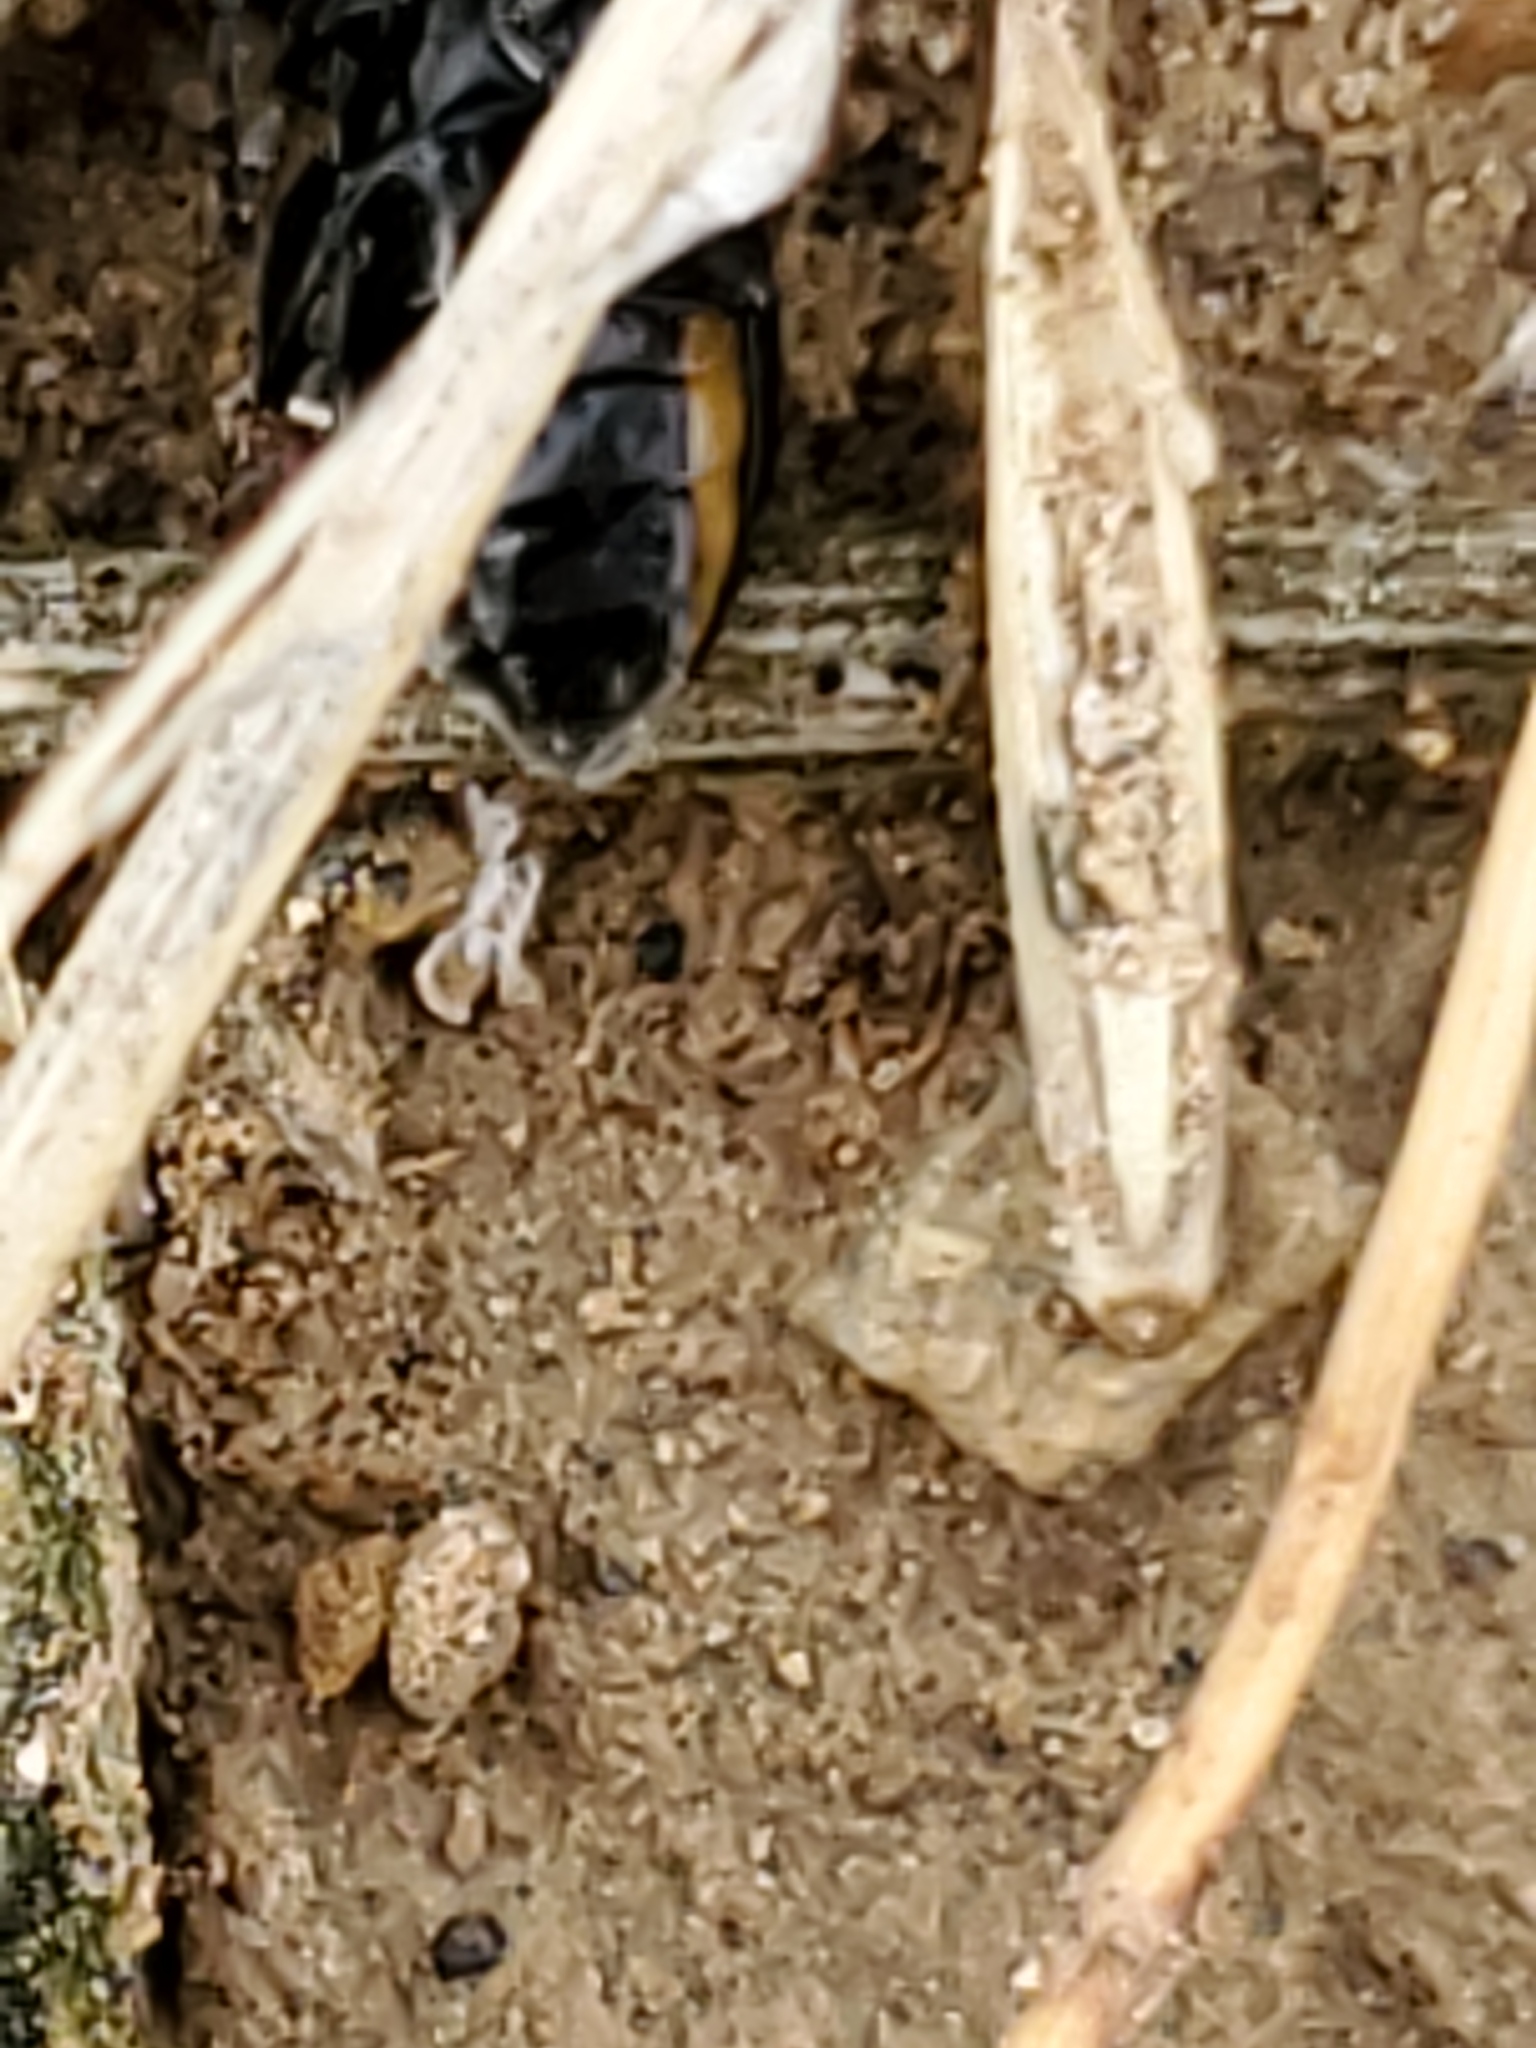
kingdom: Animalia
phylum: Arthropoda
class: Insecta
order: Coleoptera
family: Chrysomelidae
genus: Disonycha
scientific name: Disonycha triangularis
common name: Three-spotted flea beetle
